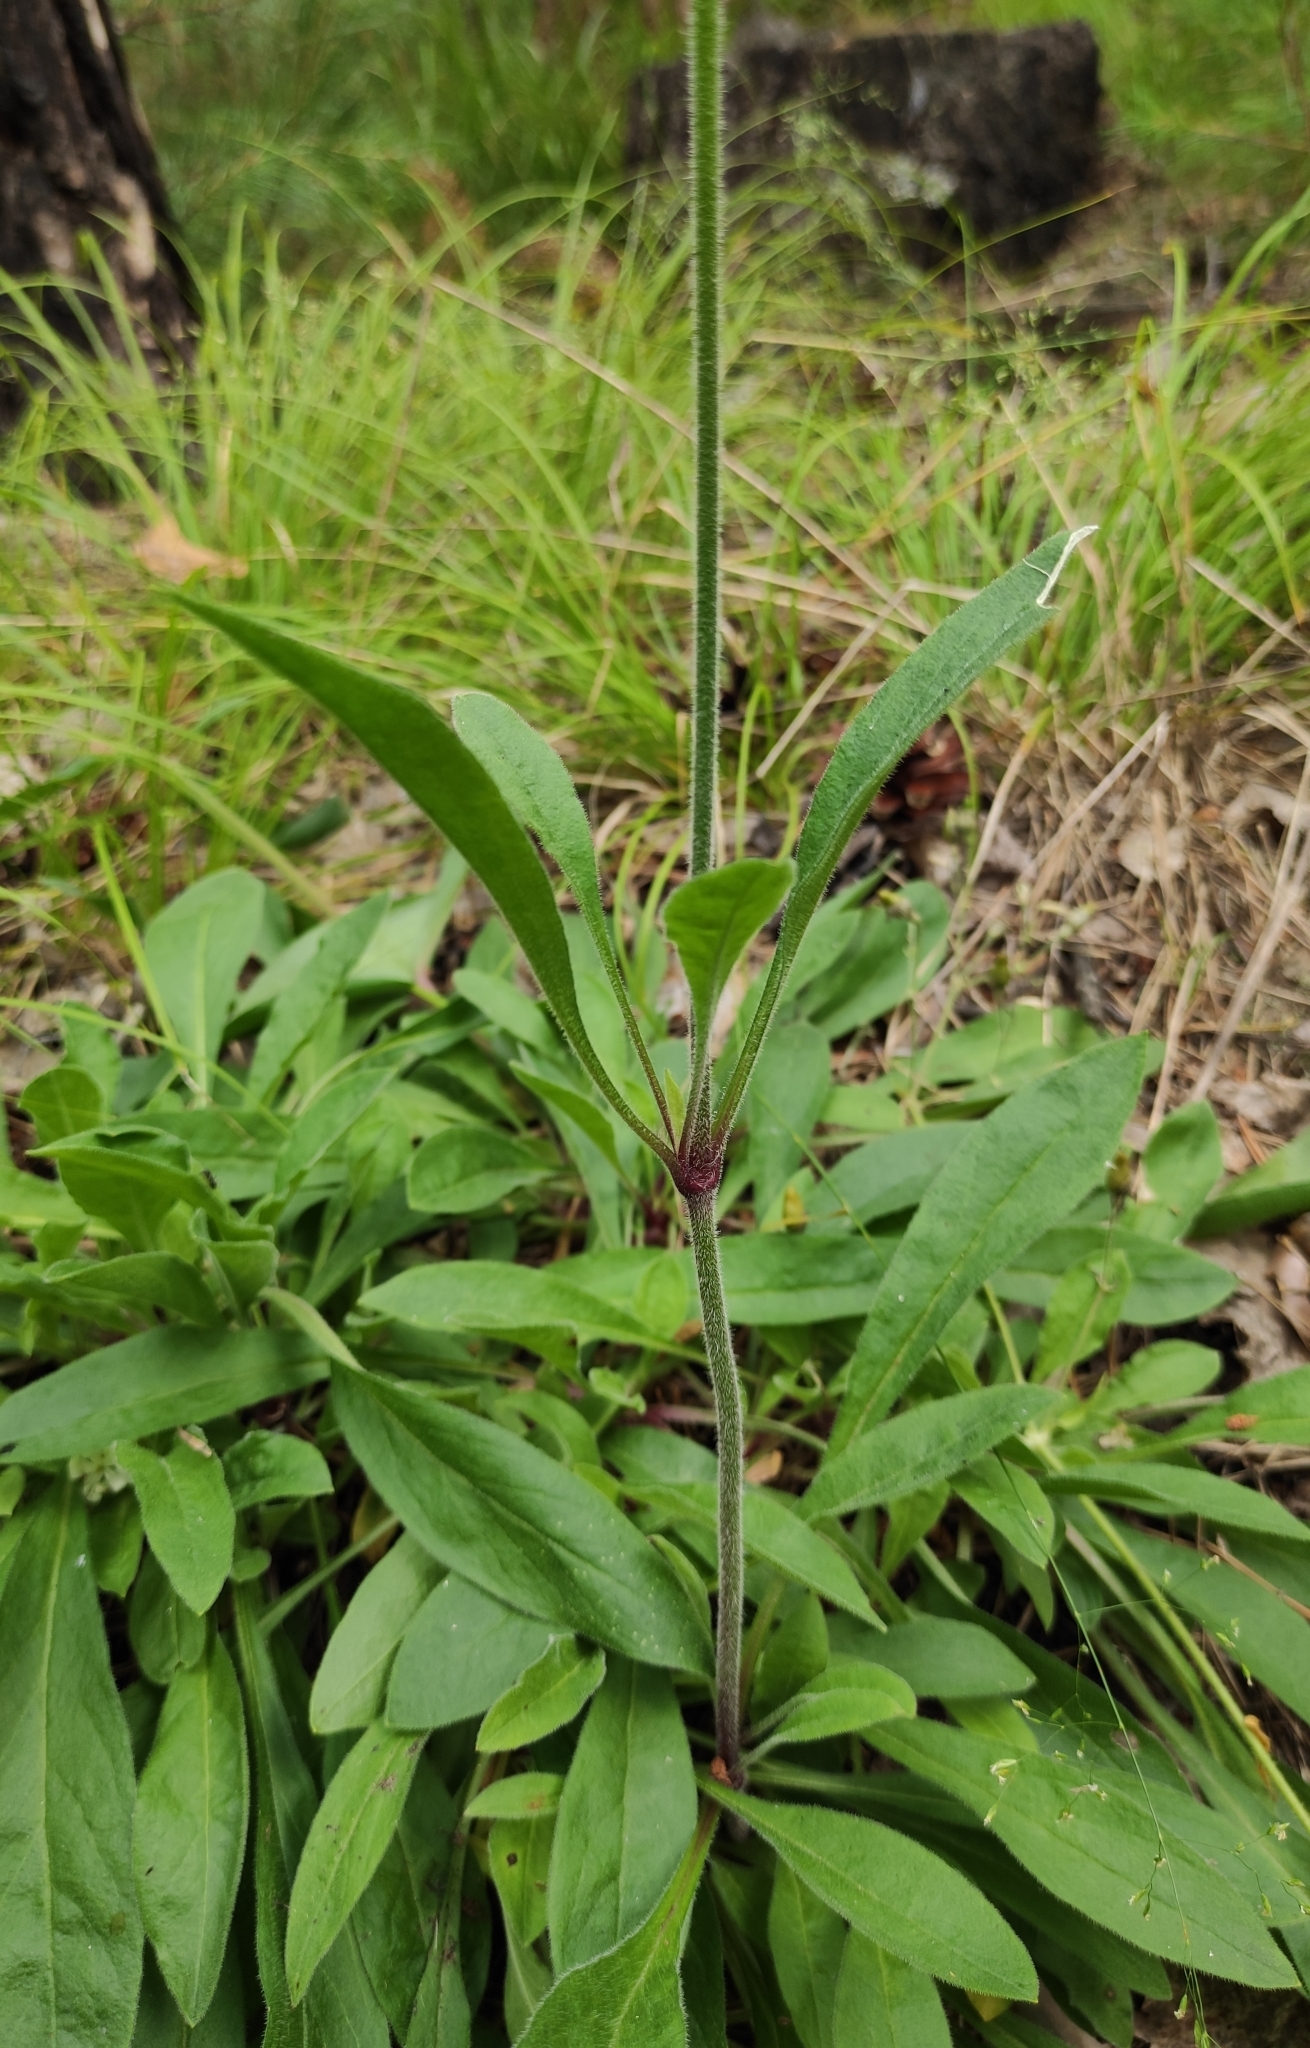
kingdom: Plantae
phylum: Tracheophyta
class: Magnoliopsida
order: Caryophyllales
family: Caryophyllaceae
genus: Silene
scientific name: Silene nutans
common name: Nottingham catchfly
